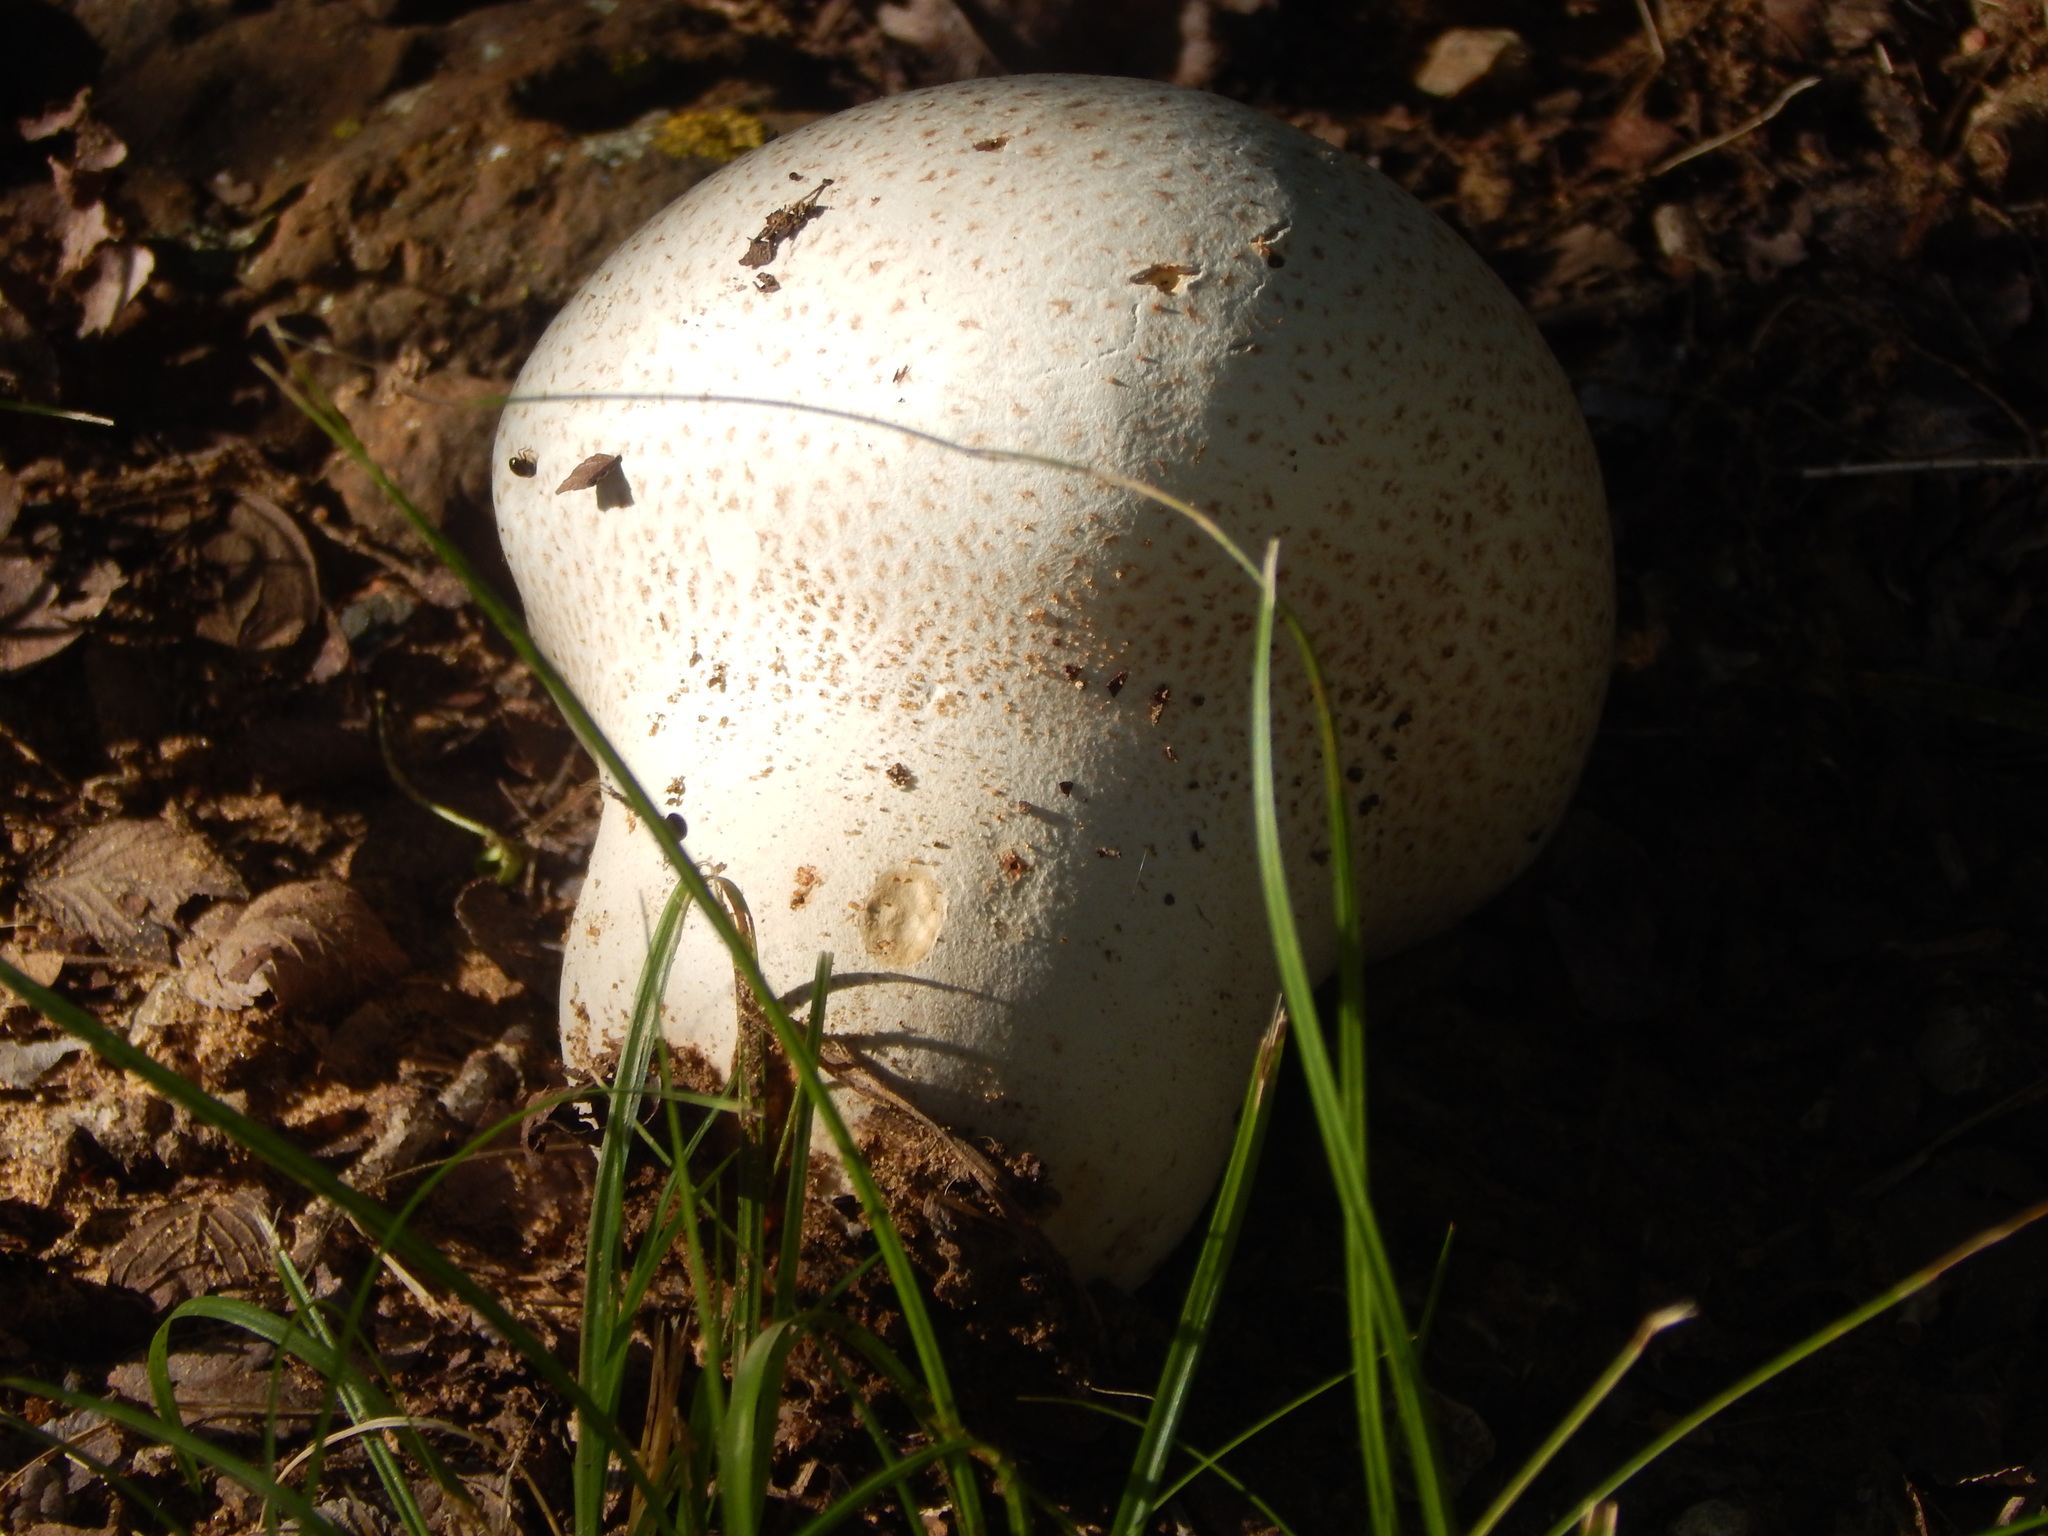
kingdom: Fungi
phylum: Basidiomycota
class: Agaricomycetes
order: Agaricales
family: Lycoperdaceae
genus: Calvatia
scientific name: Calvatia cyathiformis
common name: Purple-spored puffball
